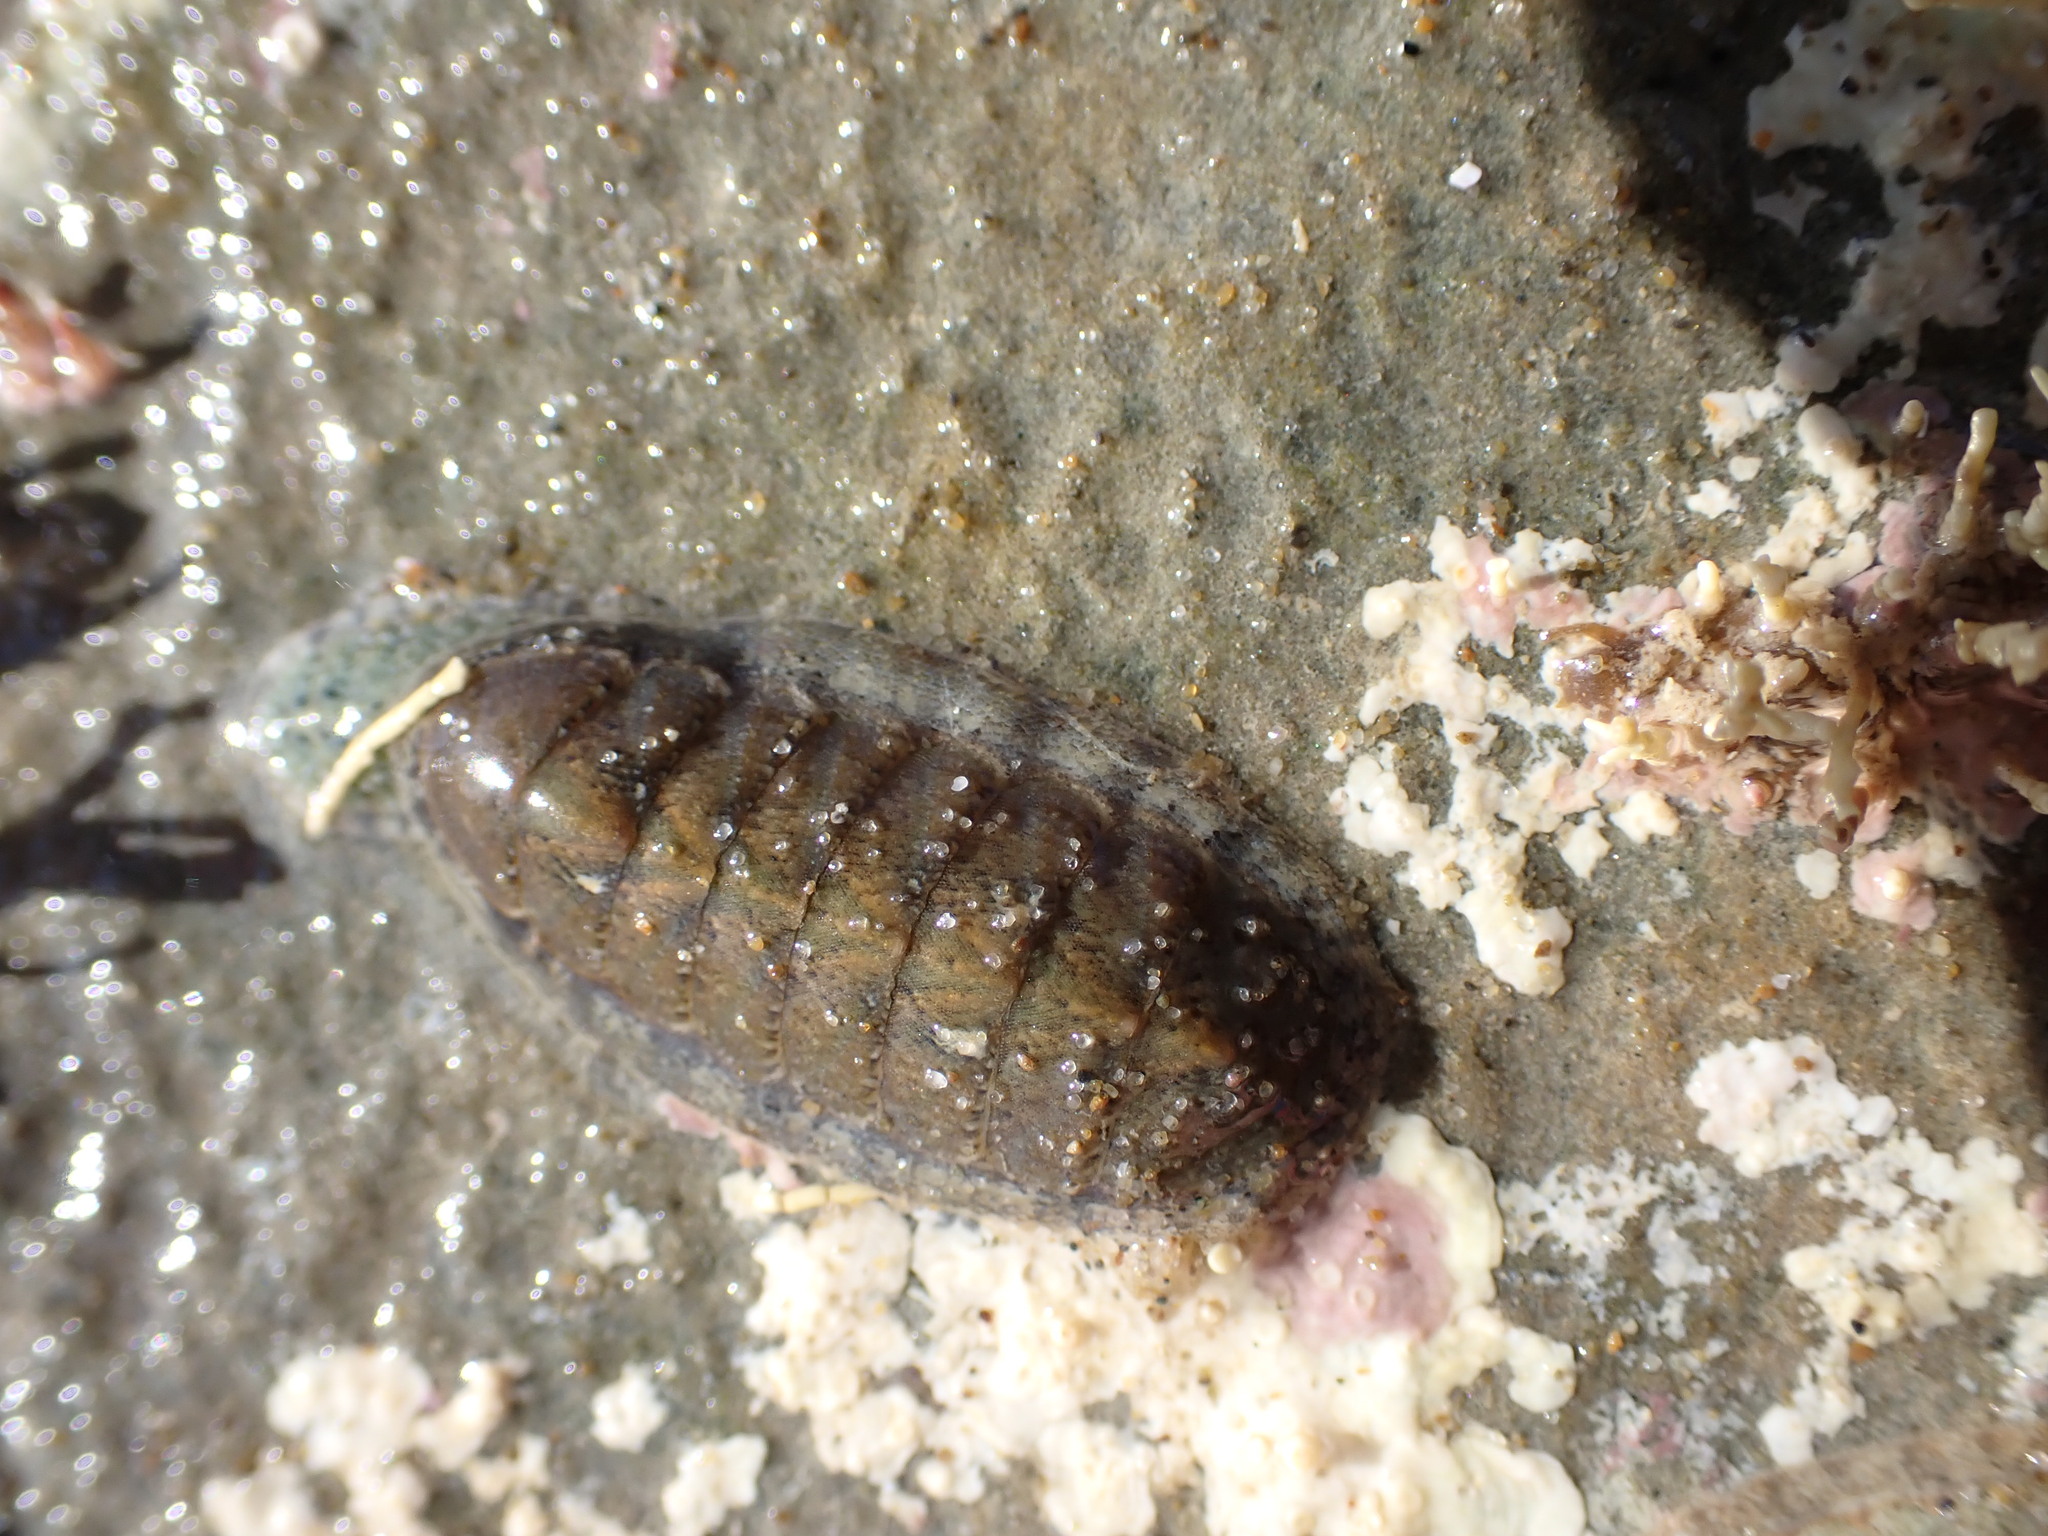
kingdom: Animalia
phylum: Mollusca
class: Polyplacophora
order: Chitonida
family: Ischnochitonidae
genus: Ischnochiton
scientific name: Ischnochiton maorianus
